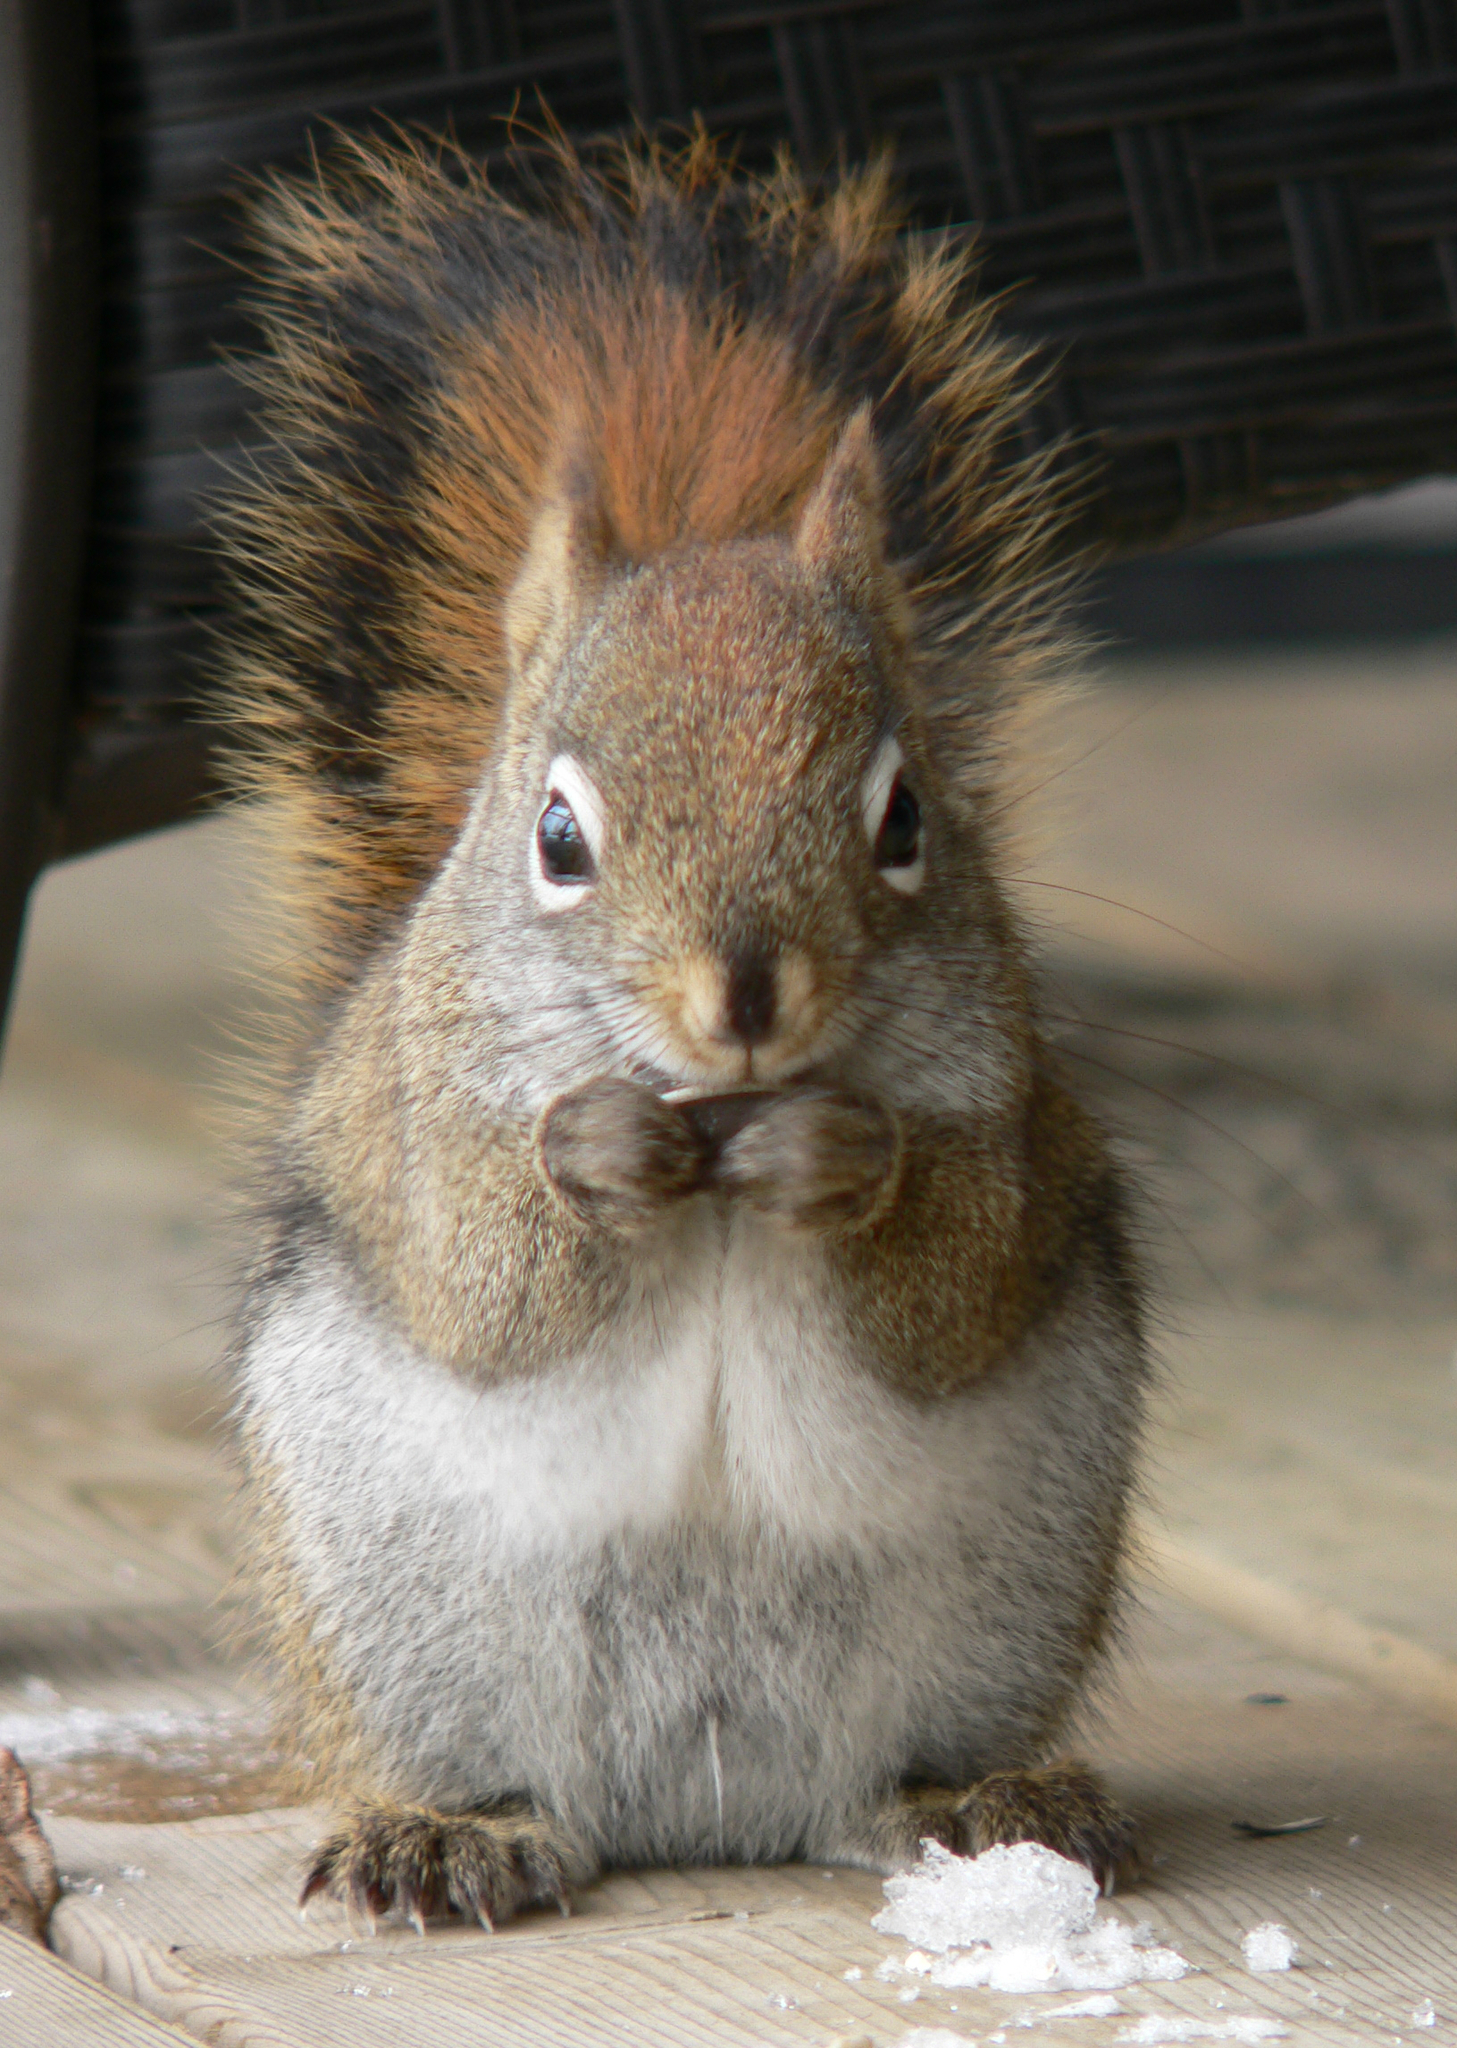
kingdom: Animalia
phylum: Chordata
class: Mammalia
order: Rodentia
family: Sciuridae
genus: Tamiasciurus
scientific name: Tamiasciurus hudsonicus
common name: Red squirrel
